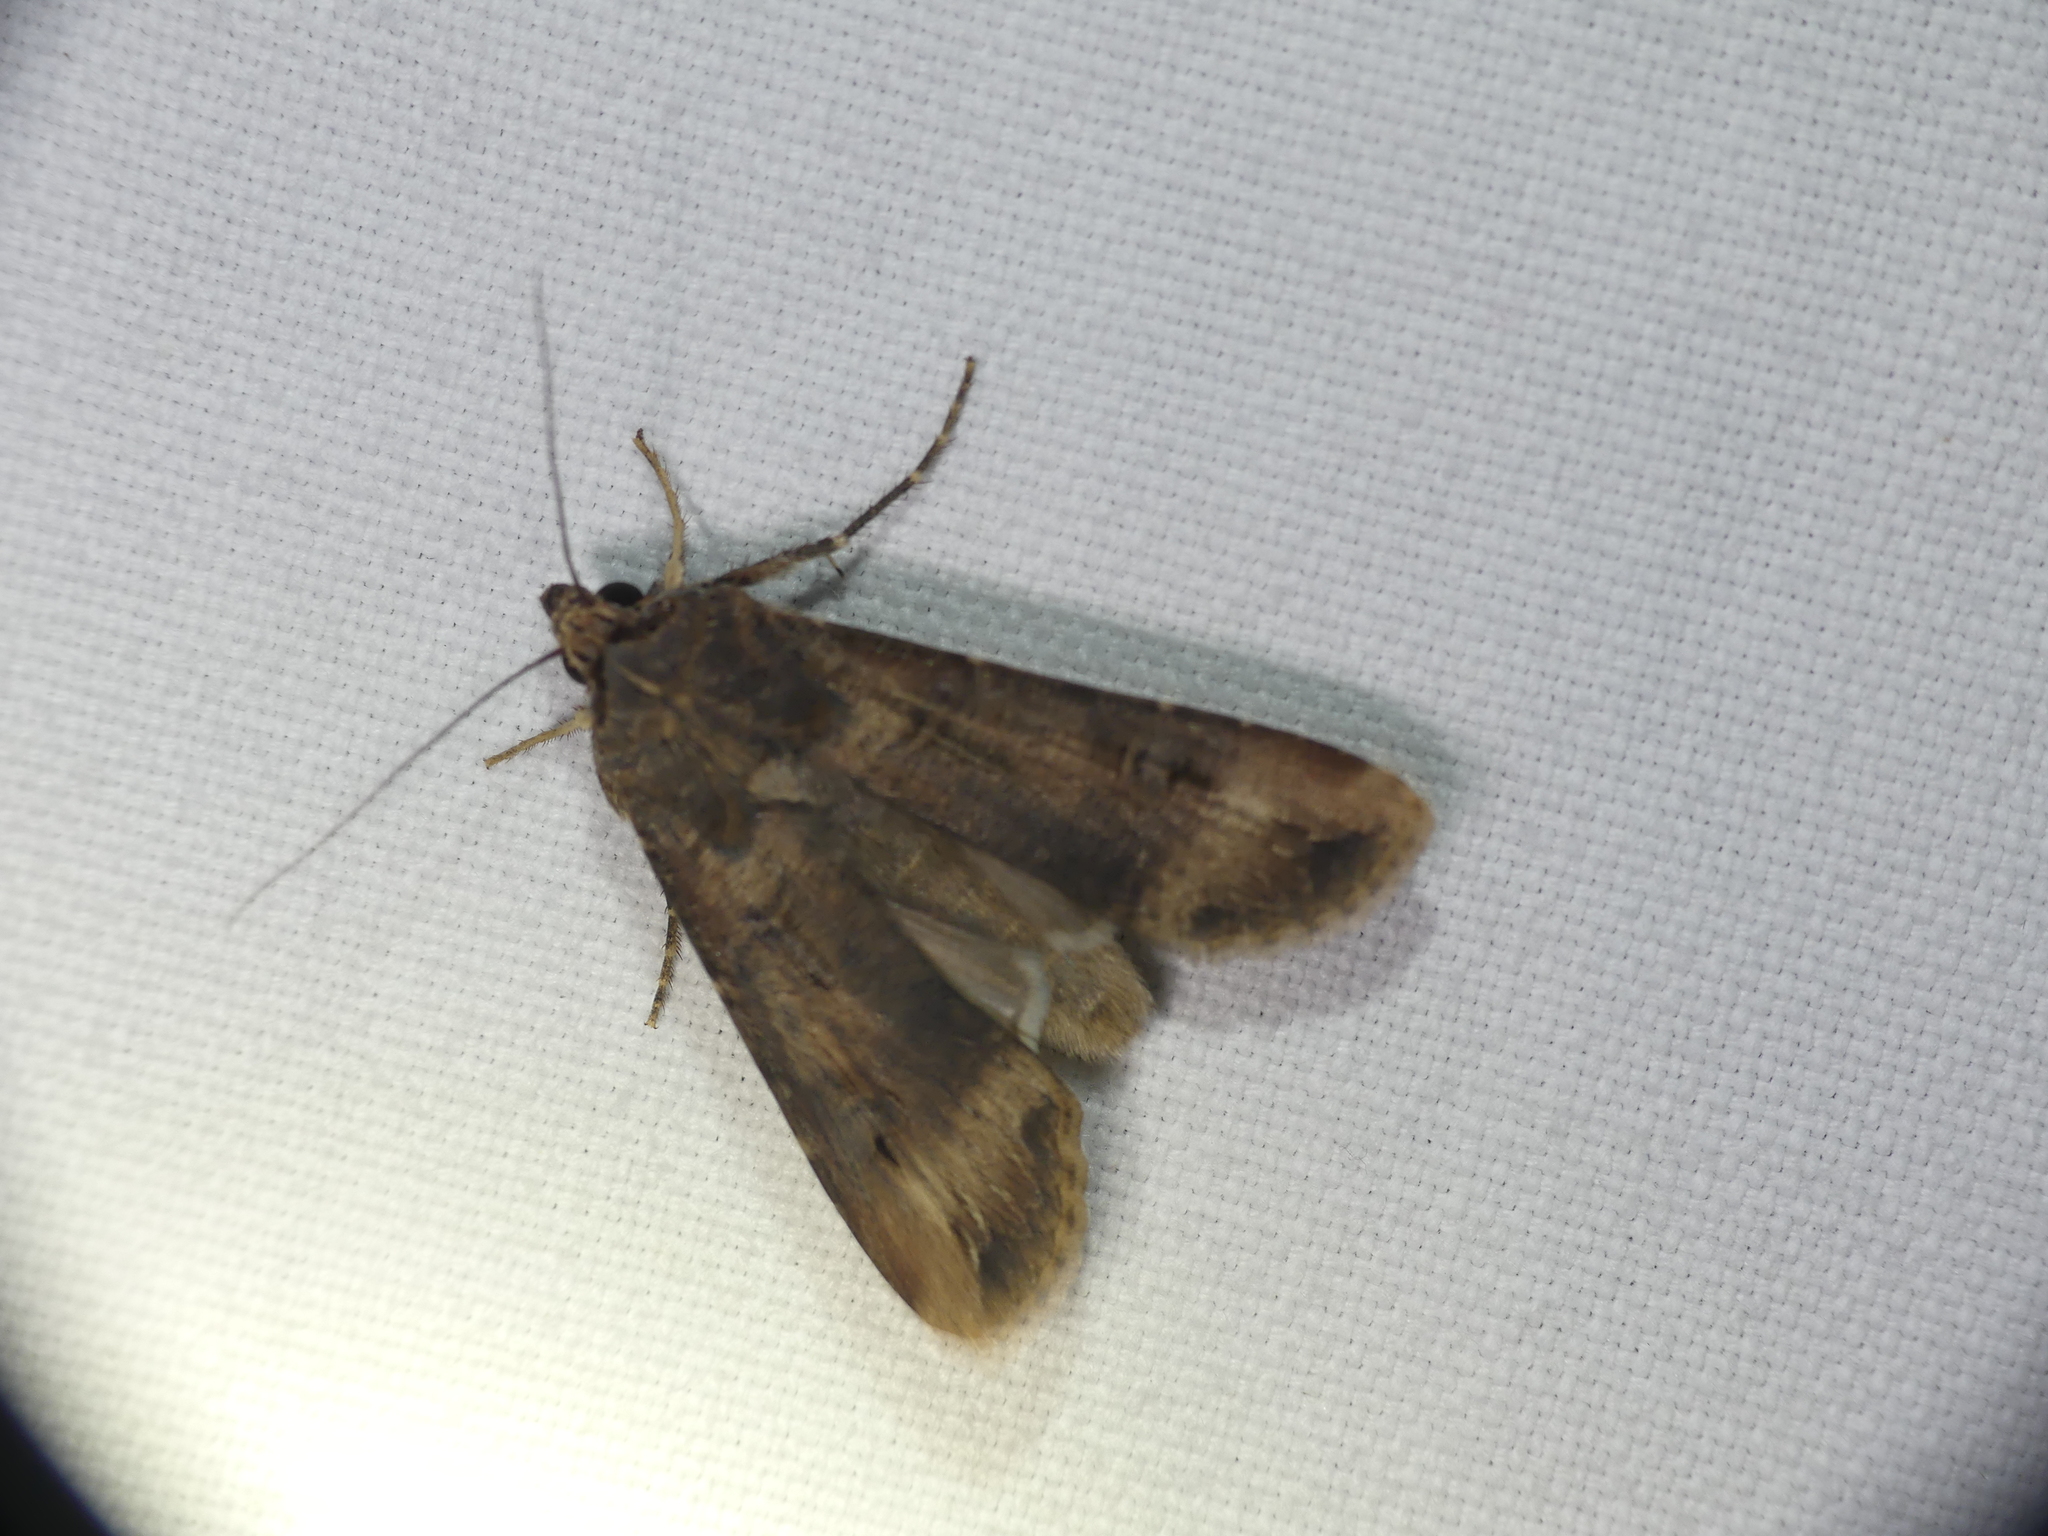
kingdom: Animalia
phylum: Arthropoda
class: Insecta
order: Lepidoptera
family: Noctuidae
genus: Agrotis
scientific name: Agrotis ipsilon
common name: Dark sword-grass
